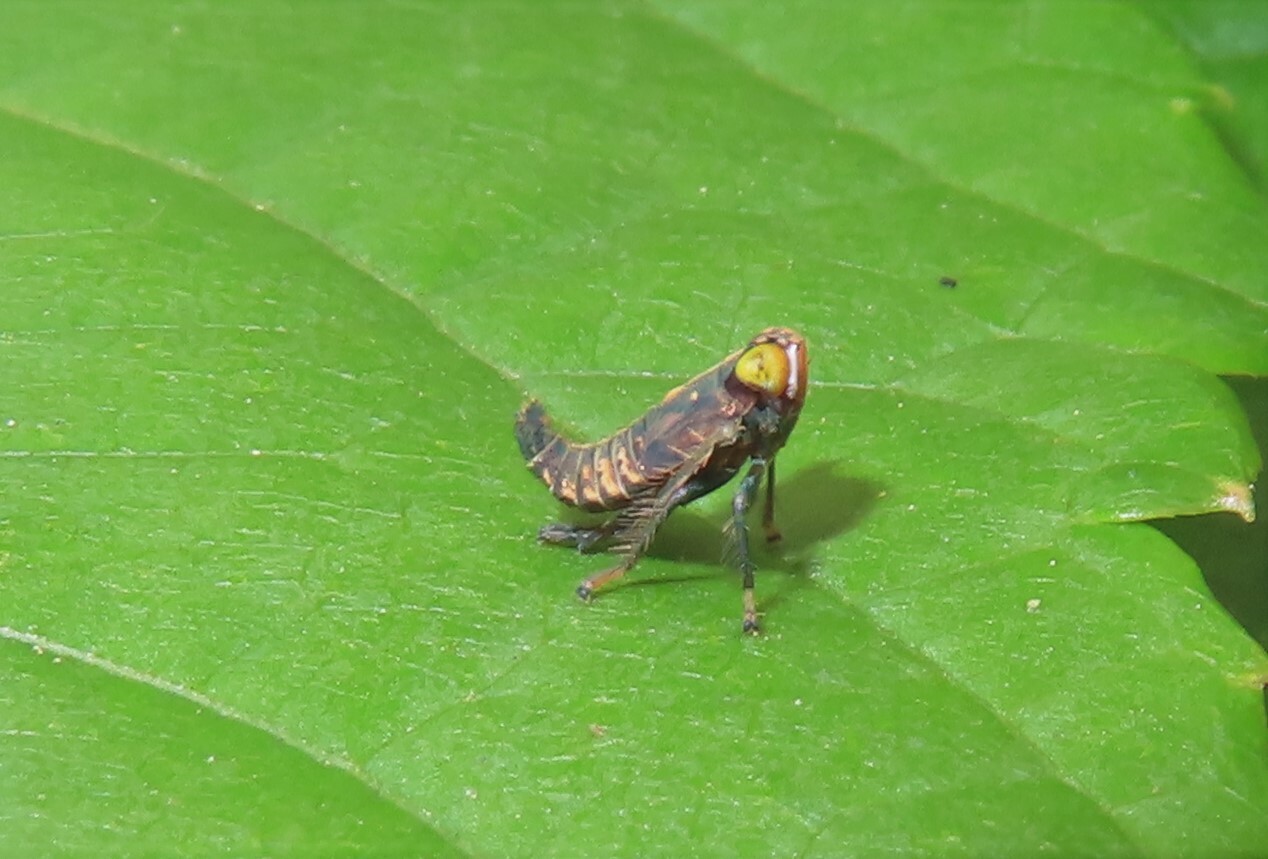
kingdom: Animalia
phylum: Arthropoda
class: Insecta
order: Hemiptera
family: Cicadellidae
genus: Jikradia
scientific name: Jikradia olitoria
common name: Coppery leafhopper
